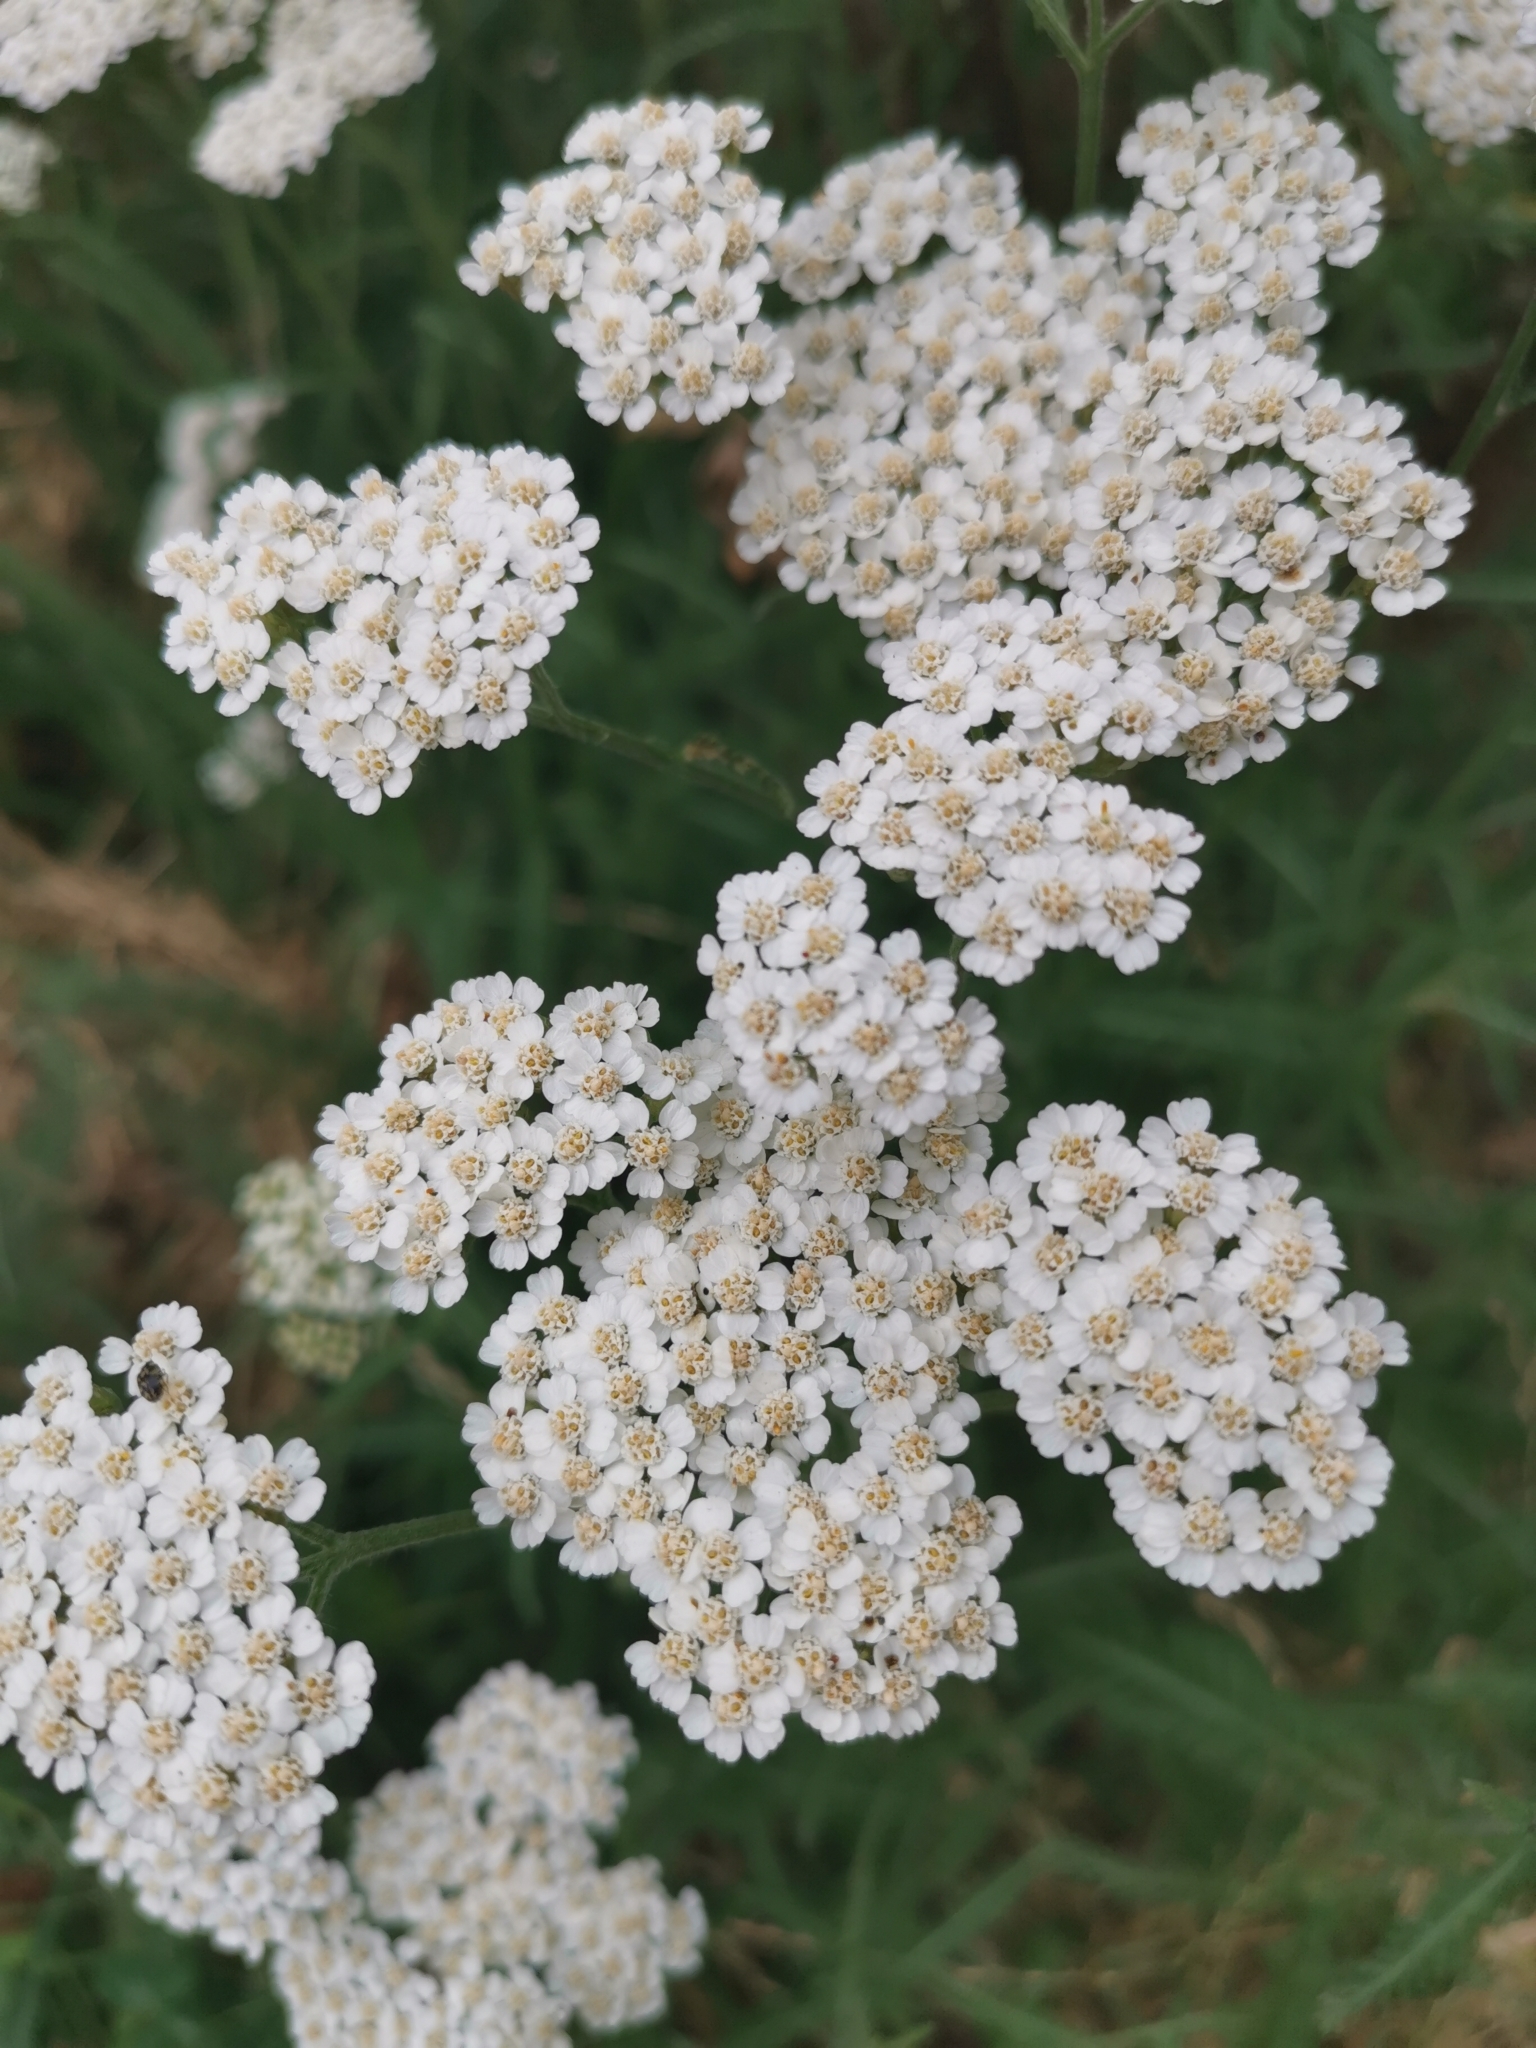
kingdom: Plantae
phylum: Tracheophyta
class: Magnoliopsida
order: Asterales
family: Asteraceae
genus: Achillea
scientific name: Achillea millefolium
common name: Yarrow
